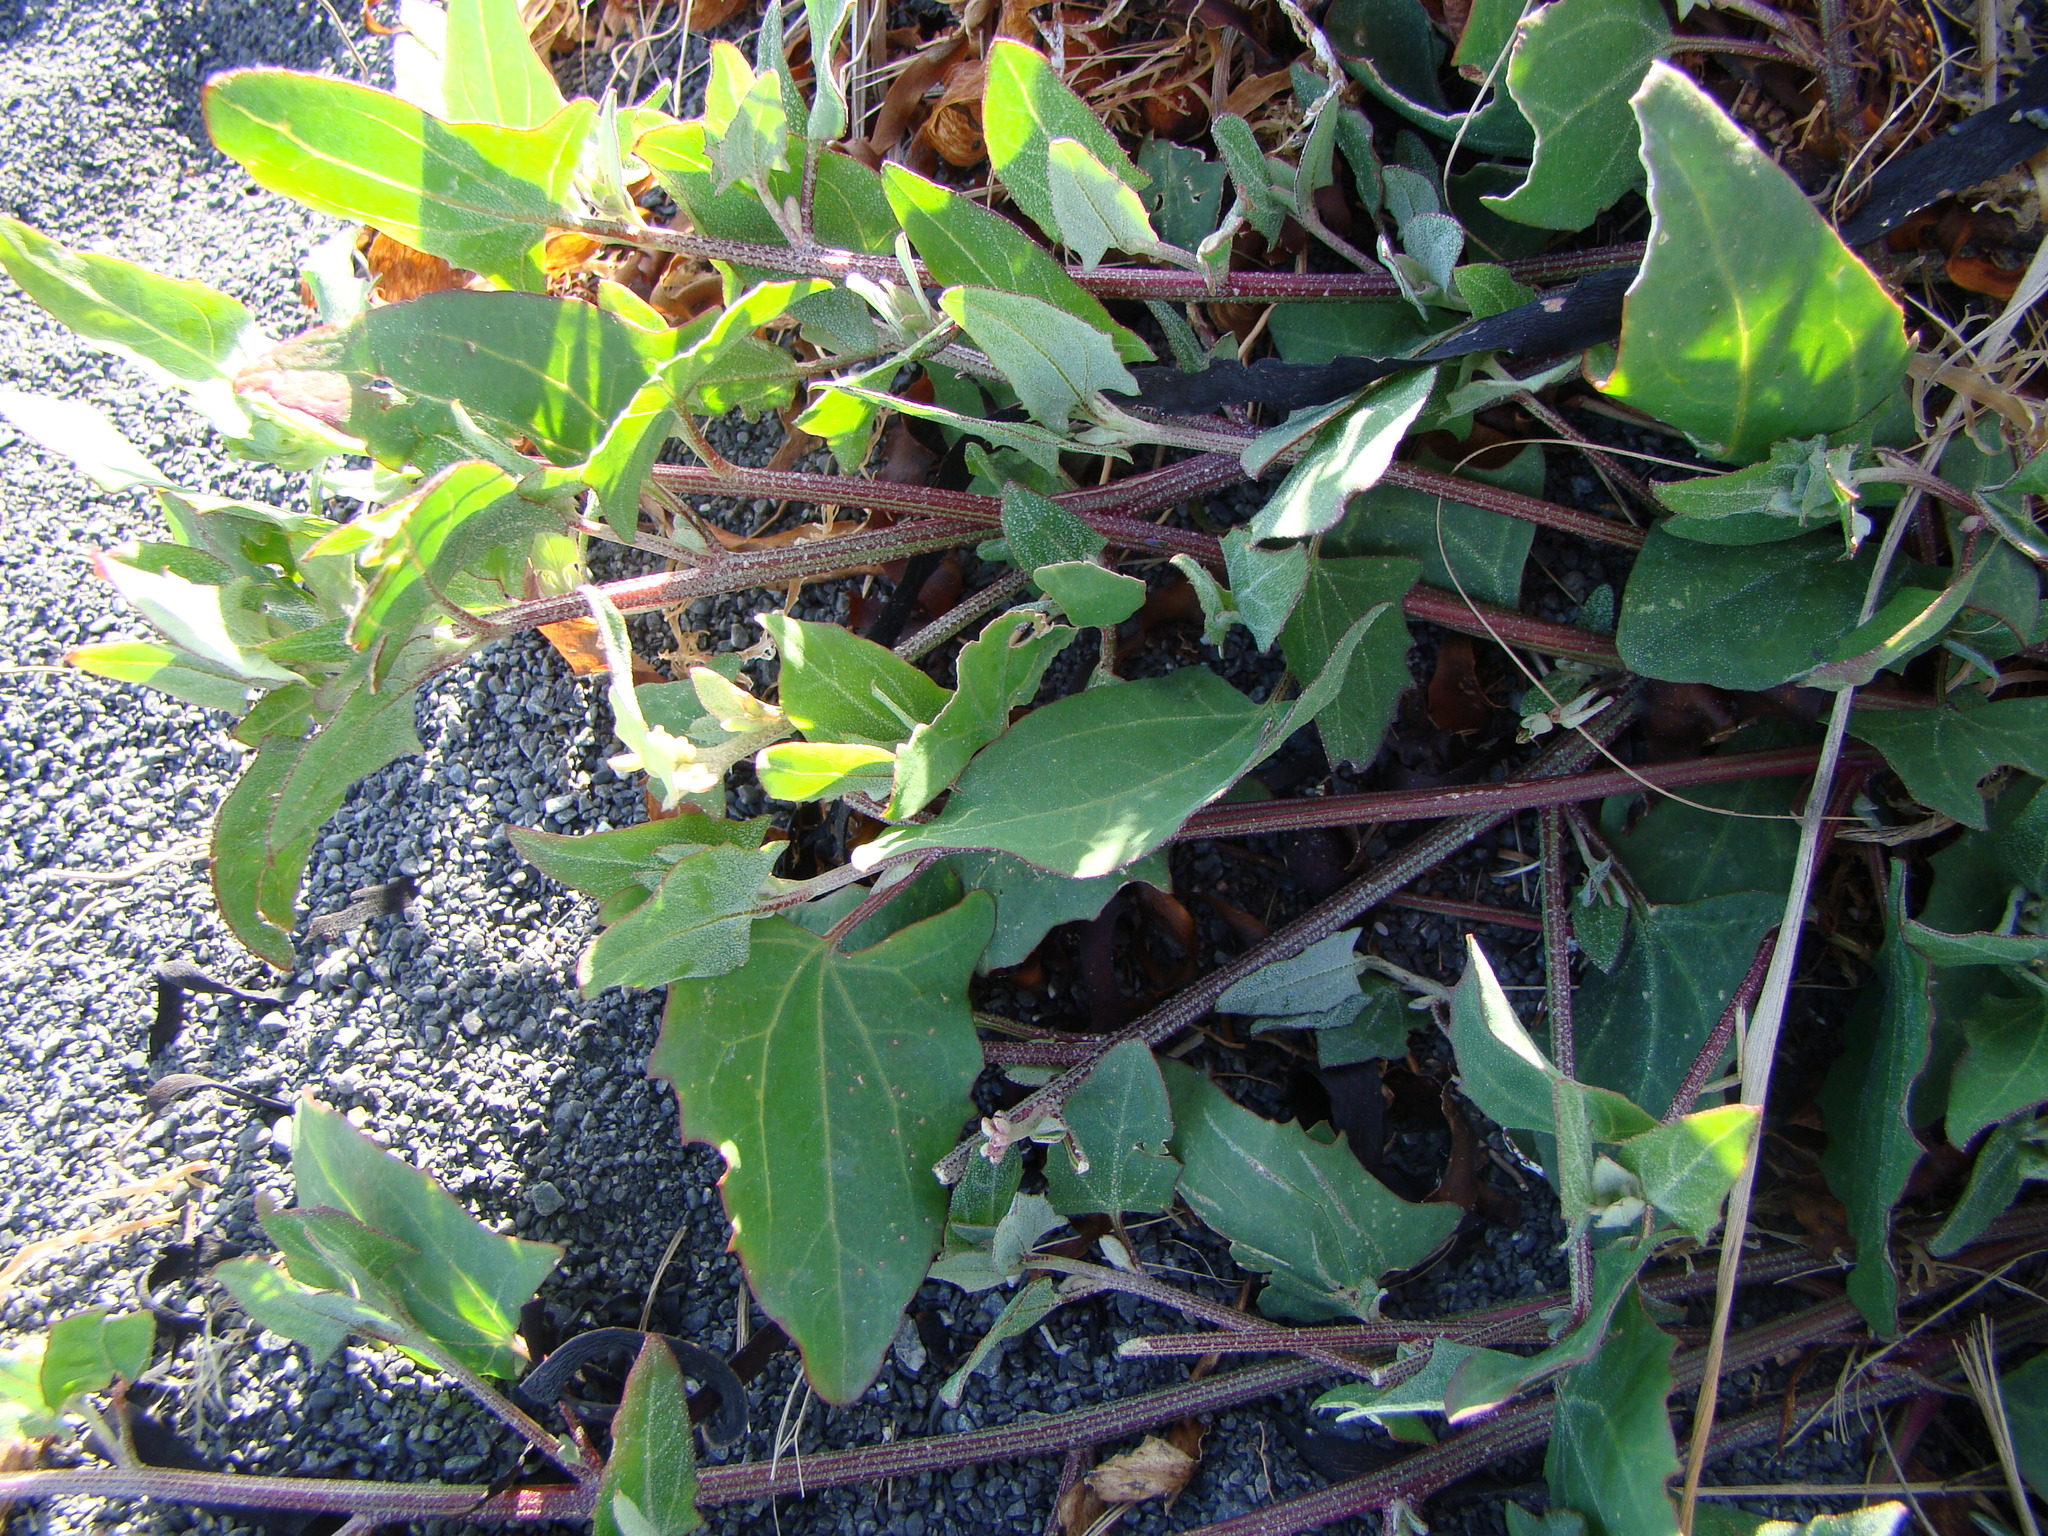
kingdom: Plantae
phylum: Tracheophyta
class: Magnoliopsida
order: Caryophyllales
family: Amaranthaceae
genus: Atriplex
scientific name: Atriplex prostrata
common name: Spear-leaved orache
